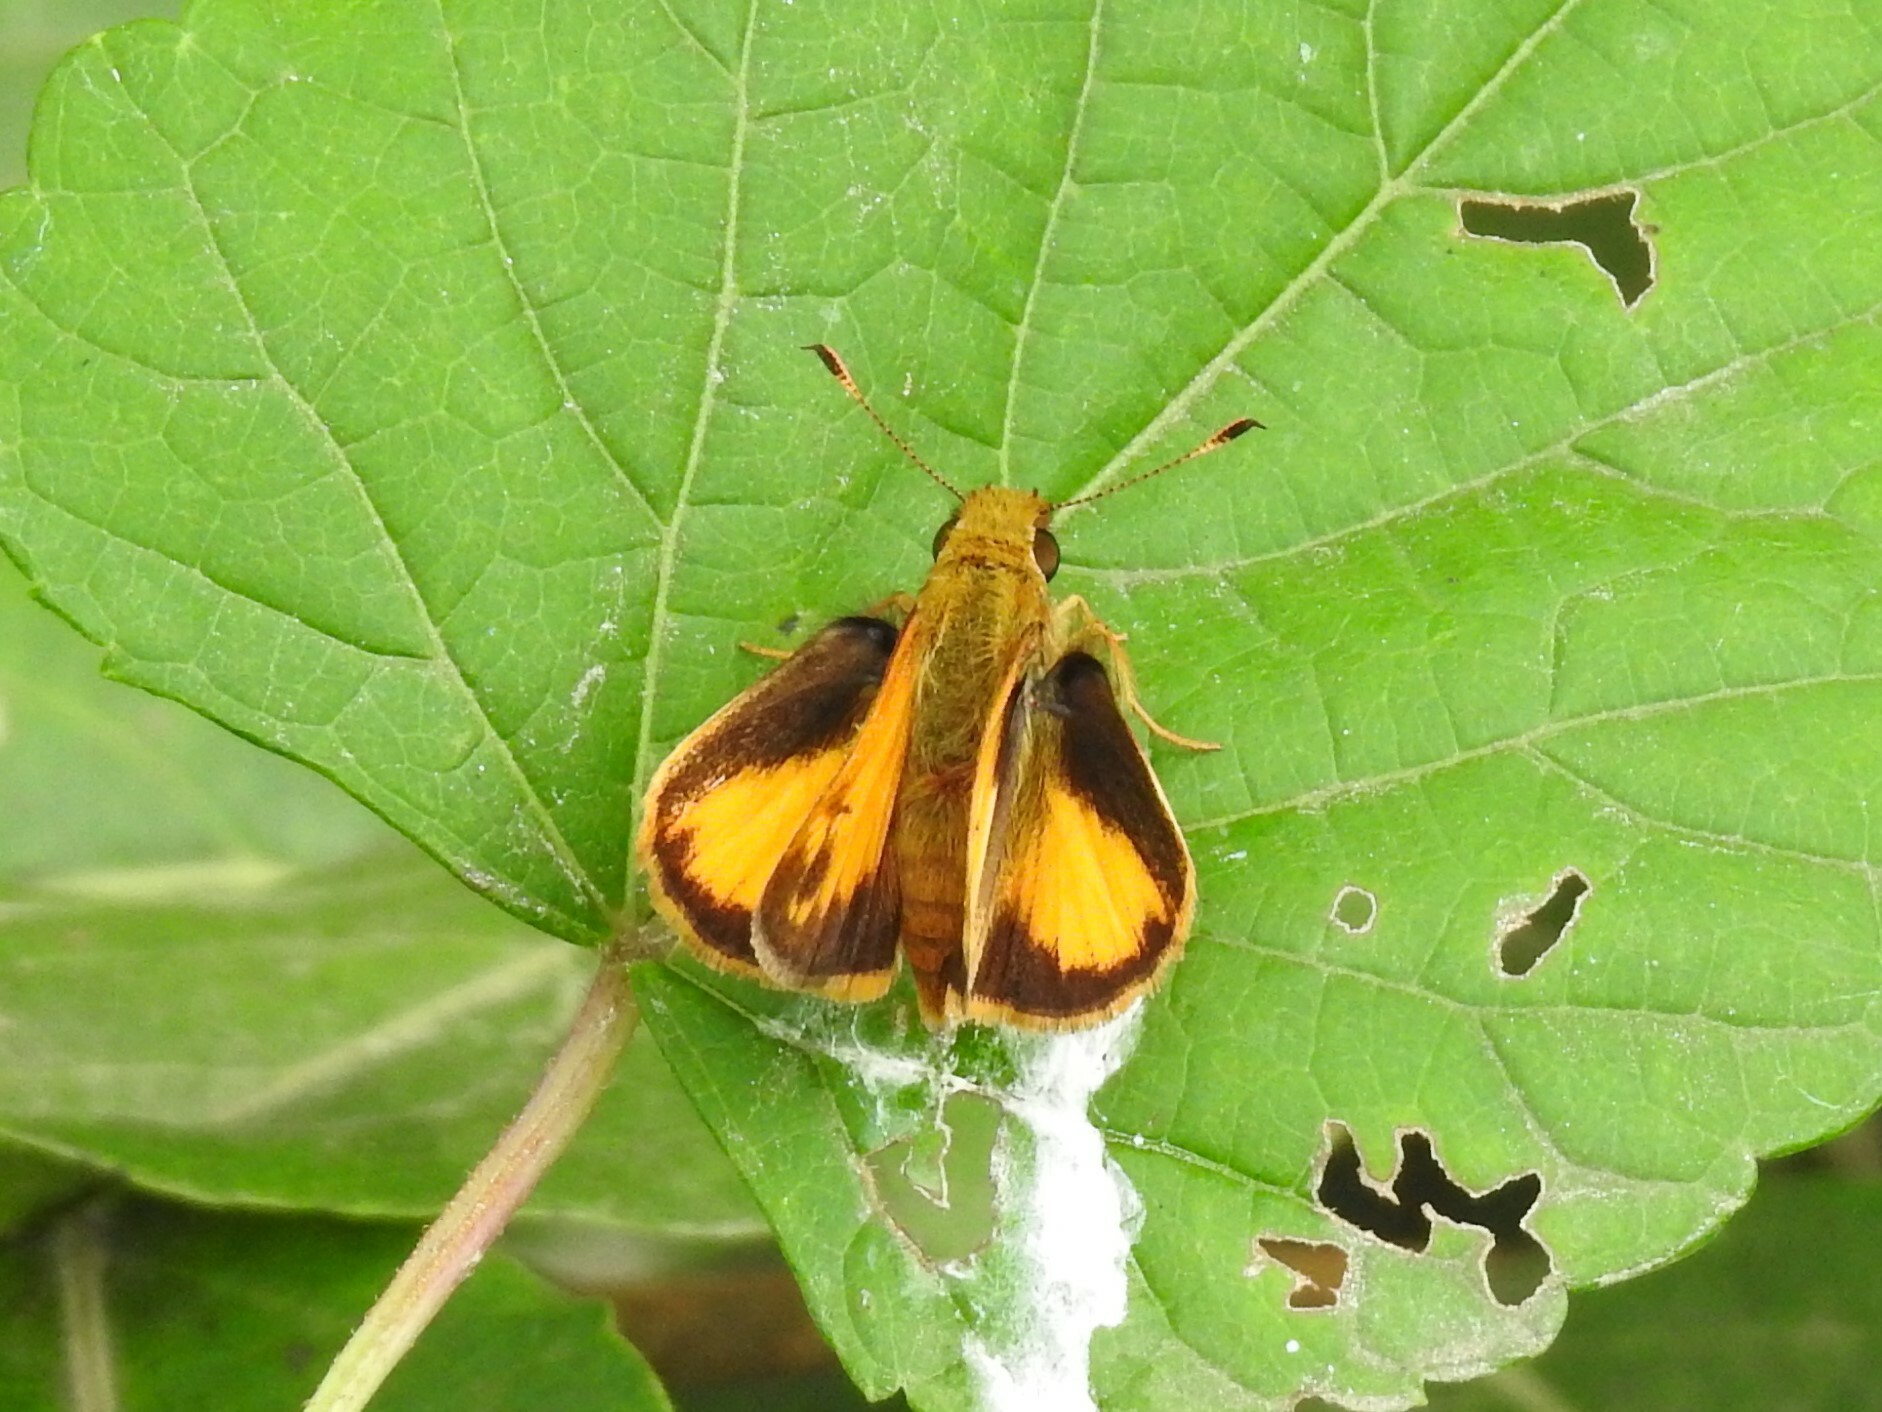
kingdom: Animalia
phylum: Arthropoda
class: Insecta
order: Lepidoptera
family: Hesperiidae
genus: Lon
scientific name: Lon zabulon
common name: Zabulon skipper
